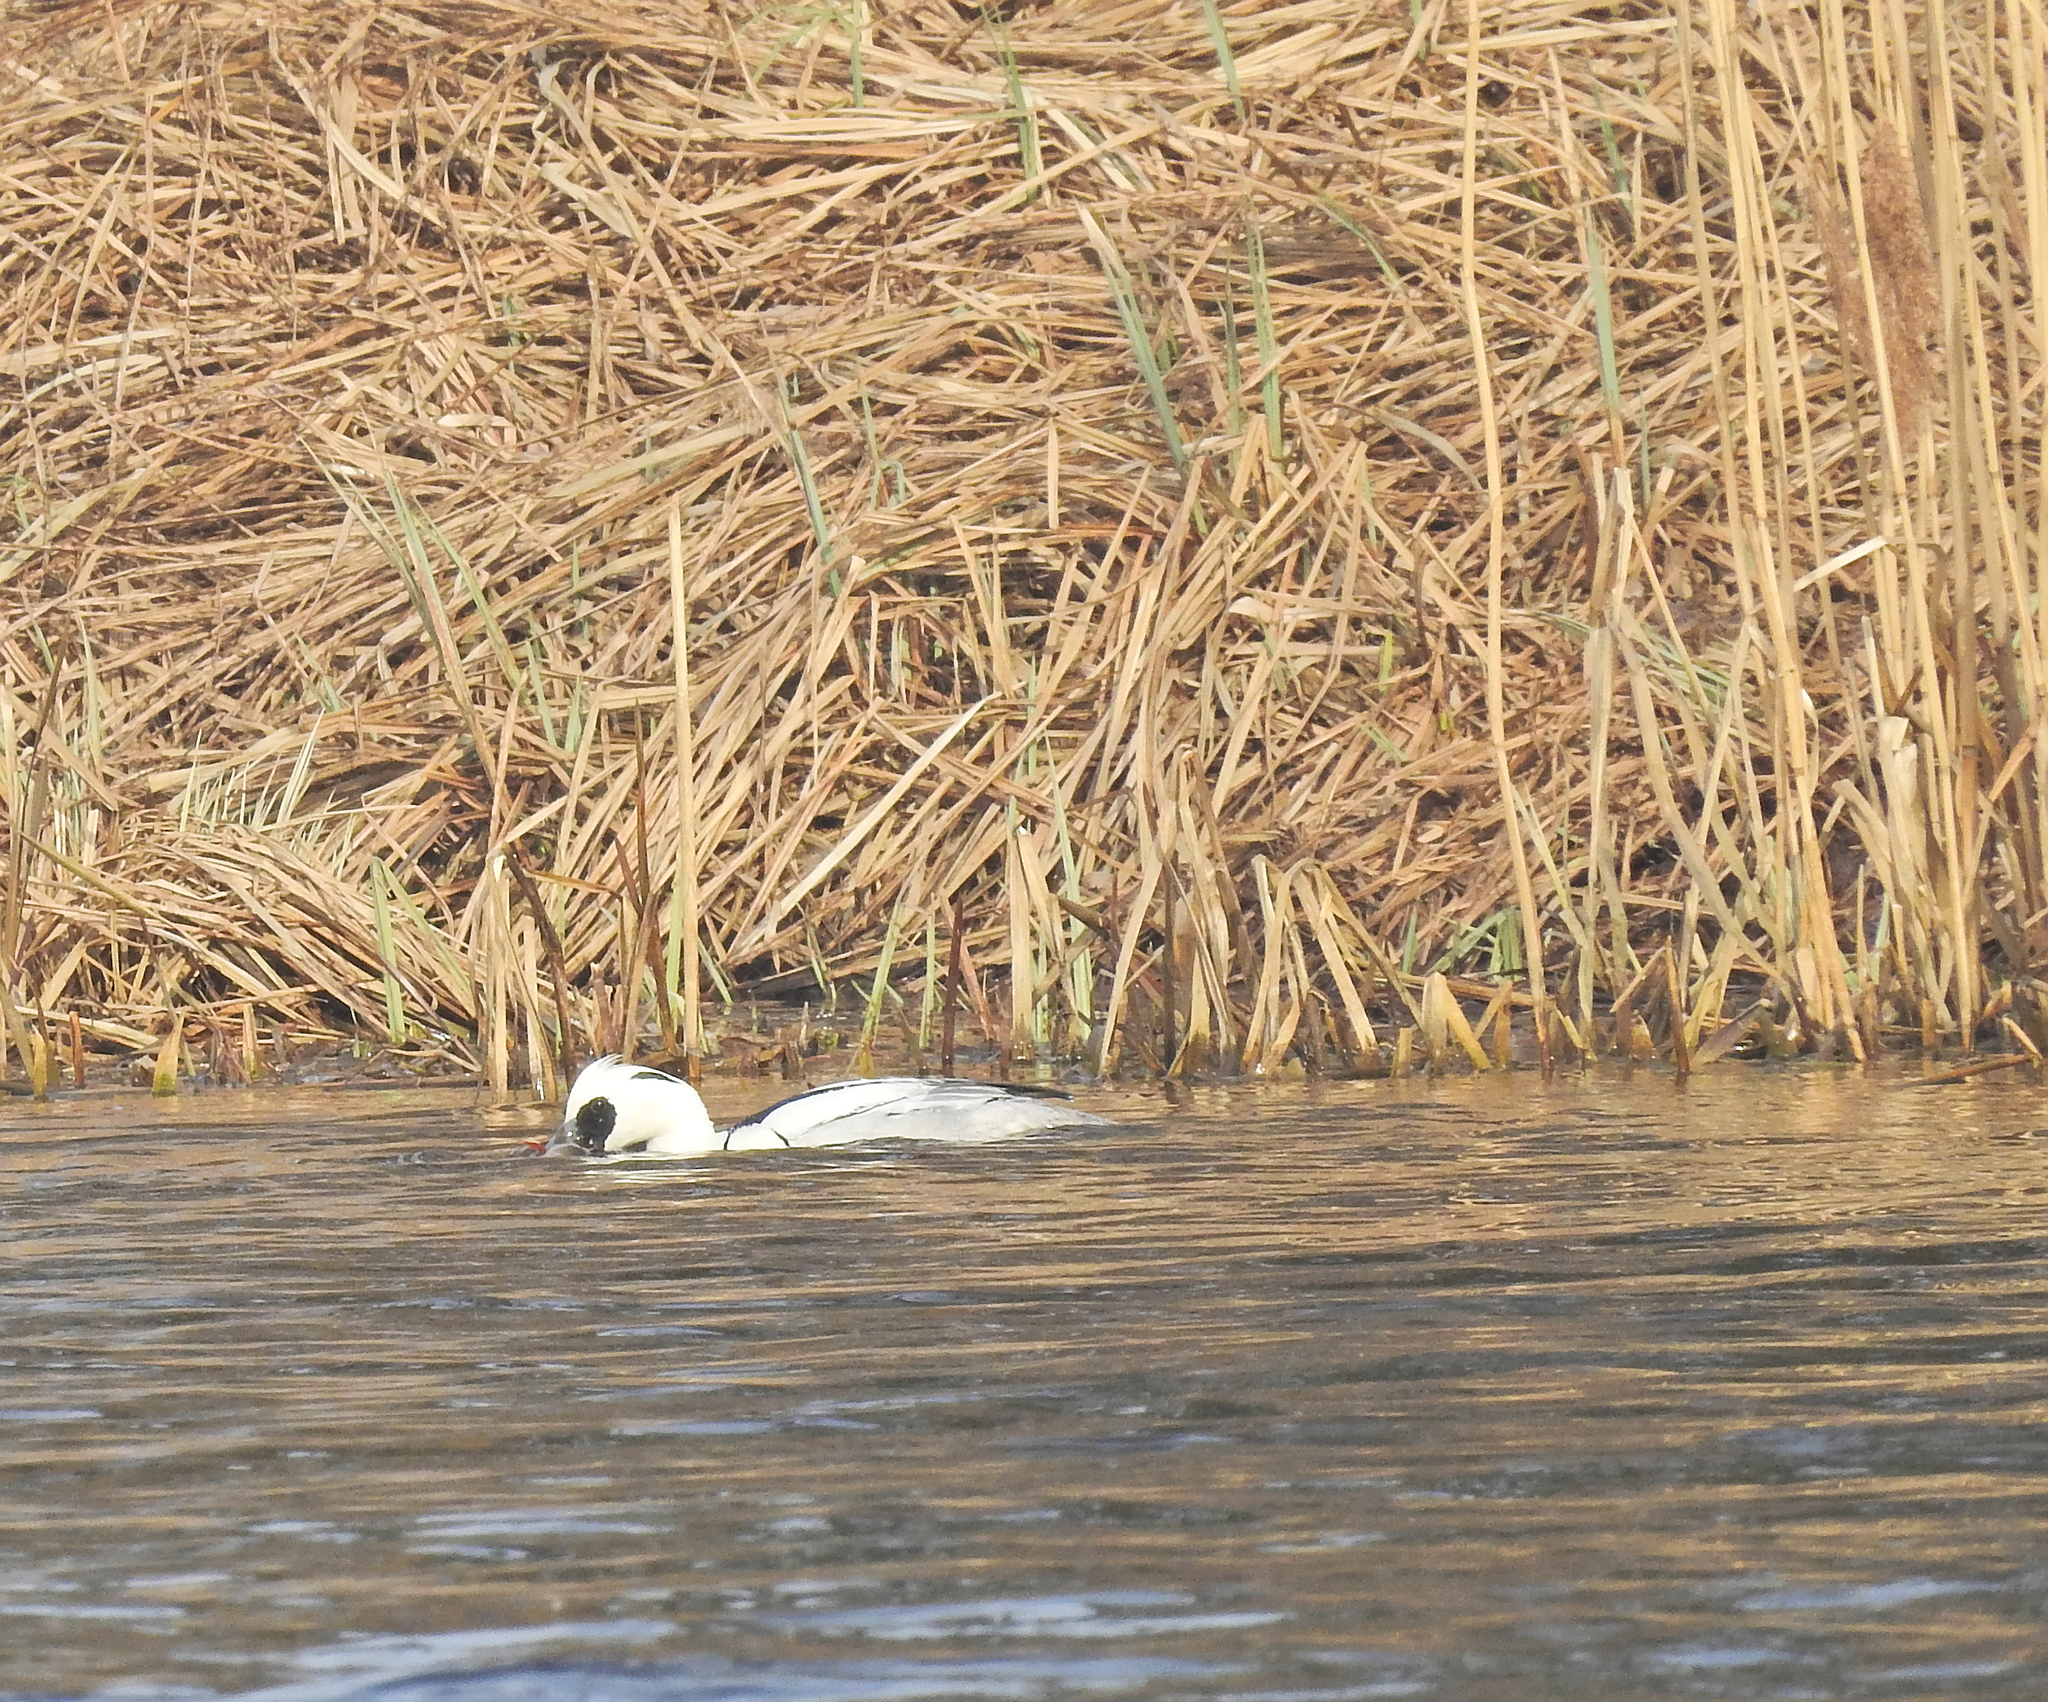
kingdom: Animalia
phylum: Chordata
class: Aves
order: Anseriformes
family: Anatidae
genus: Mergellus
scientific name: Mergellus albellus
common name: Smew
